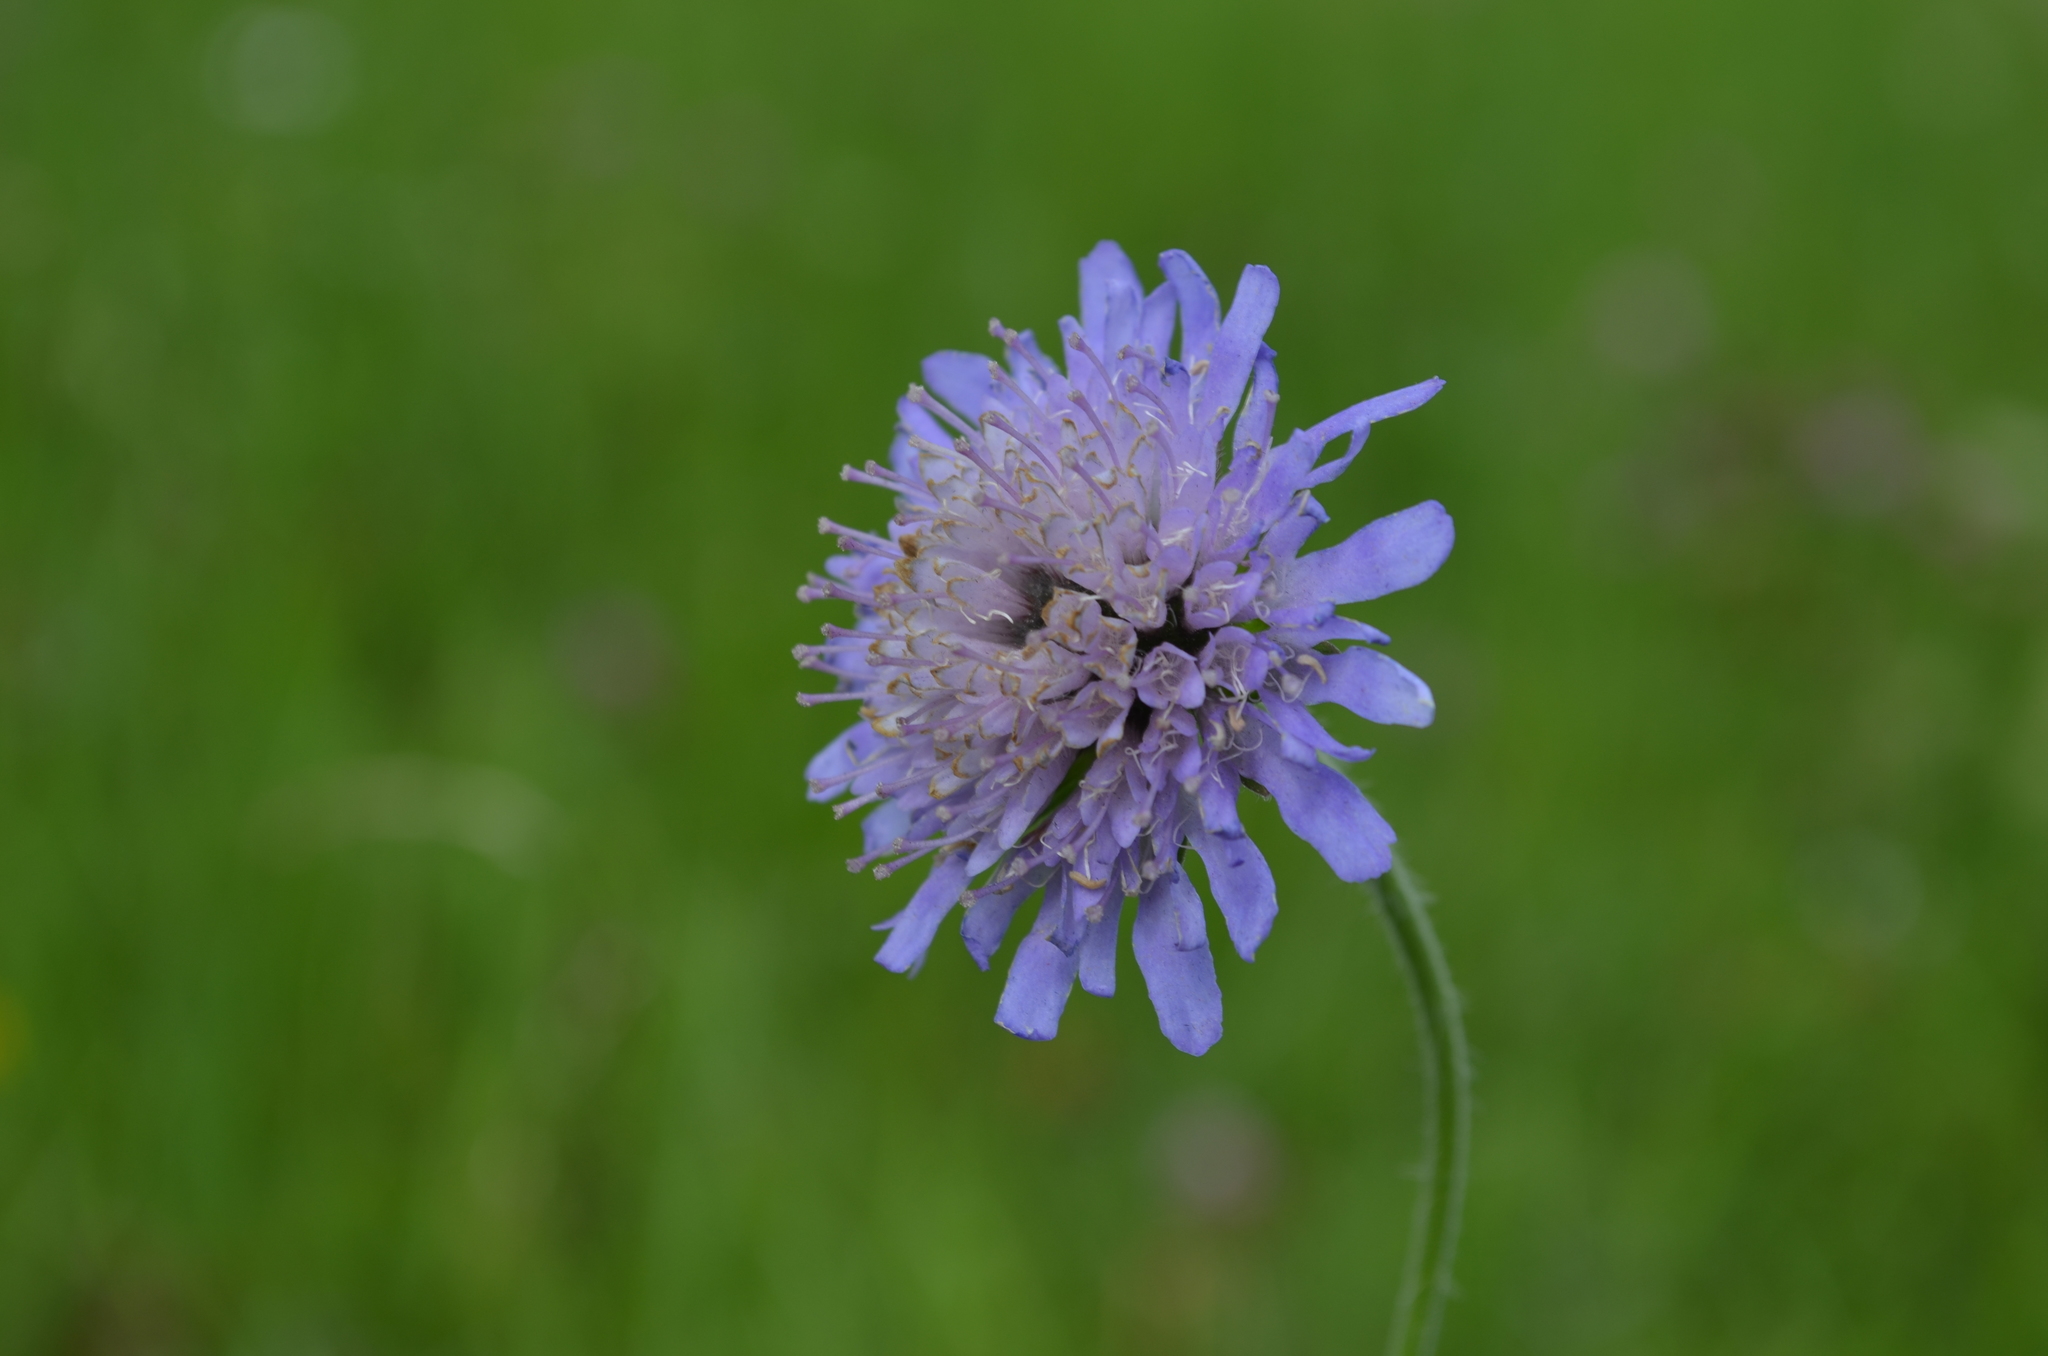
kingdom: Plantae
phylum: Tracheophyta
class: Magnoliopsida
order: Dipsacales
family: Caprifoliaceae
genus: Knautia
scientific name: Knautia dipsacifolia
